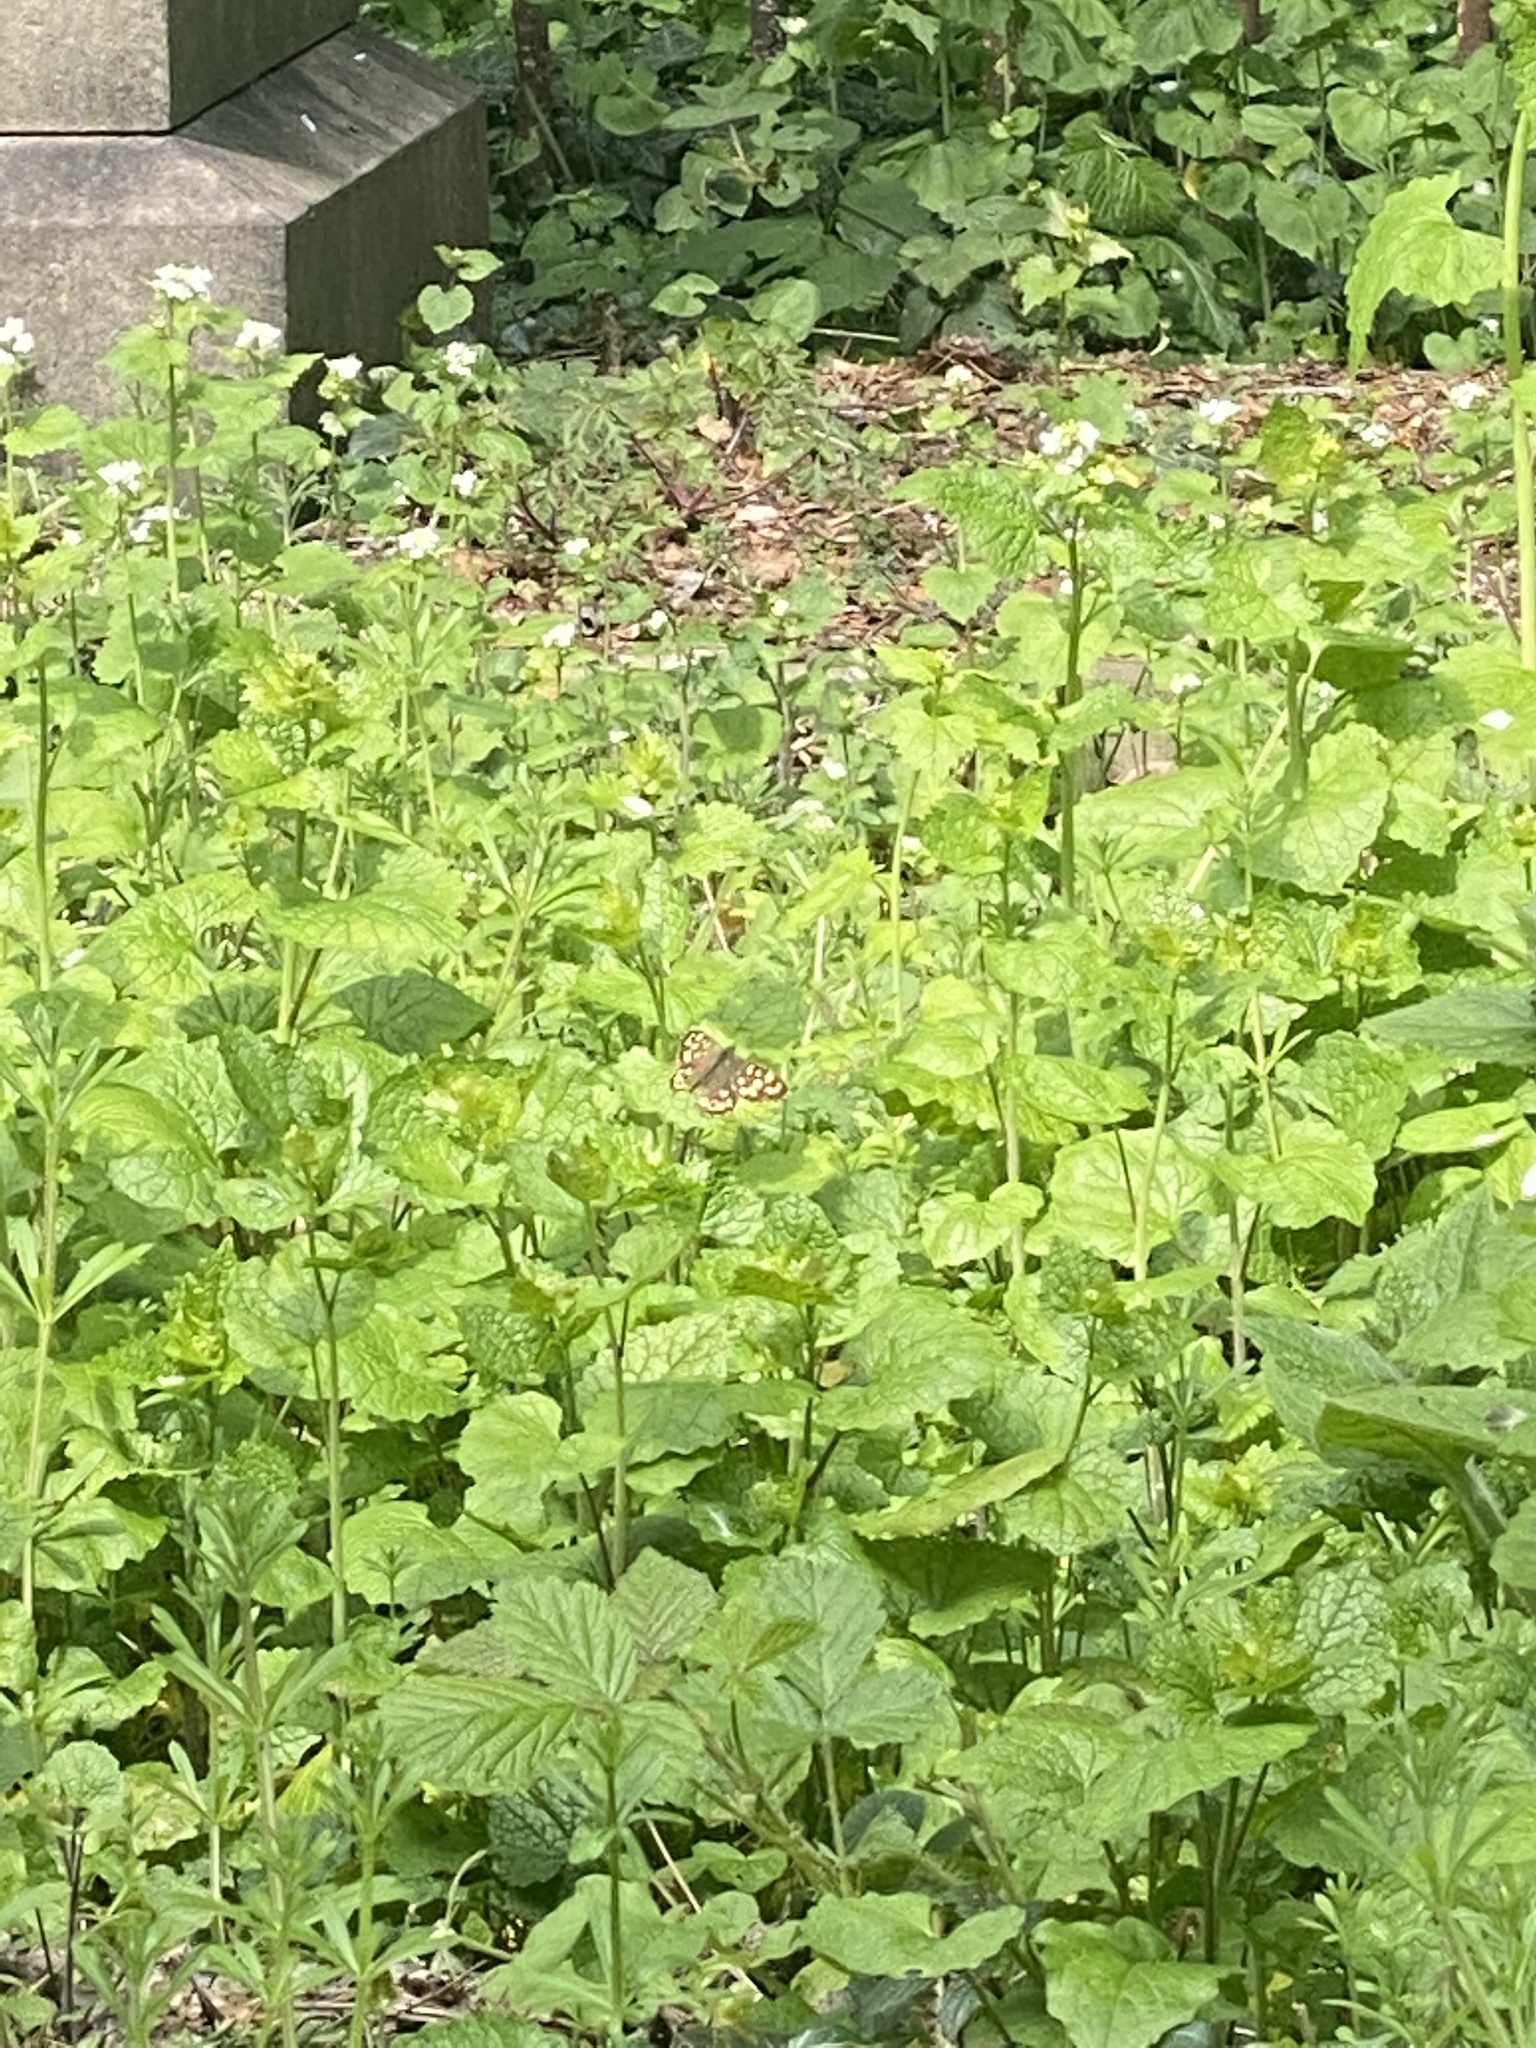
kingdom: Animalia
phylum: Arthropoda
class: Insecta
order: Lepidoptera
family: Nymphalidae
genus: Pararge
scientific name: Pararge aegeria
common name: Speckled wood
